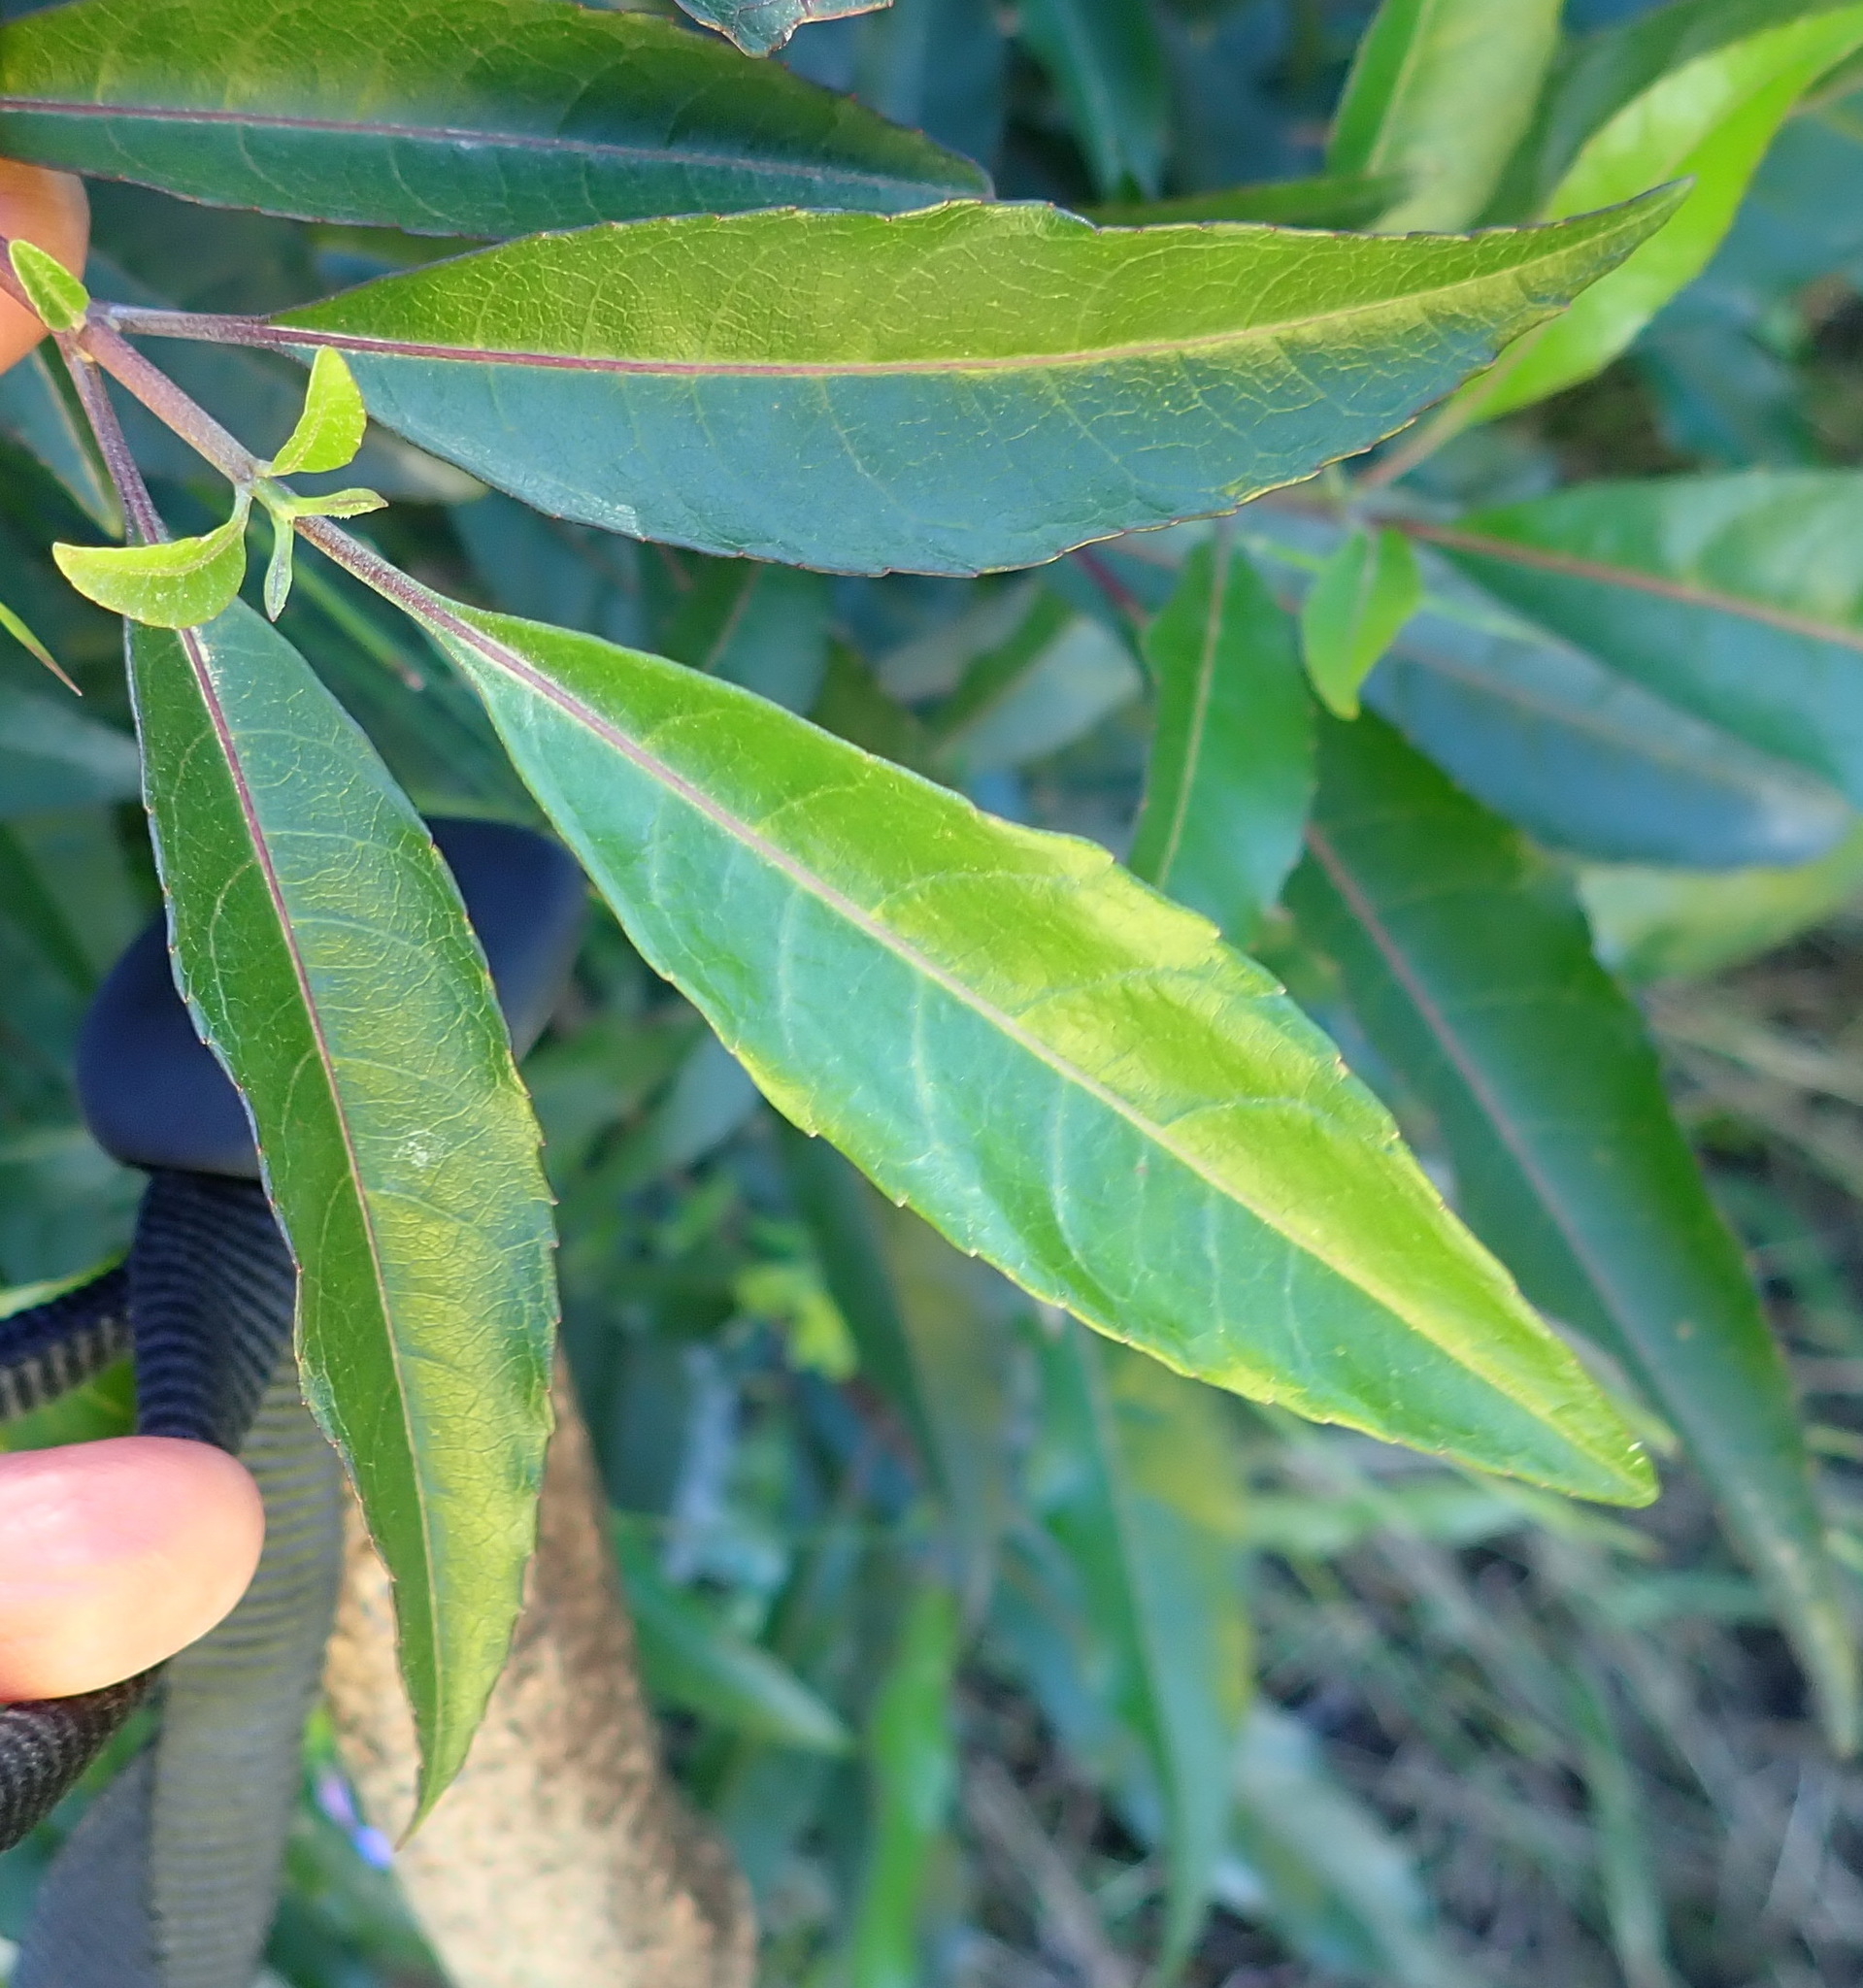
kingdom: Plantae
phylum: Tracheophyta
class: Magnoliopsida
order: Lamiales
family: Stilbaceae
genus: Nuxia
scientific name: Nuxia floribunda
